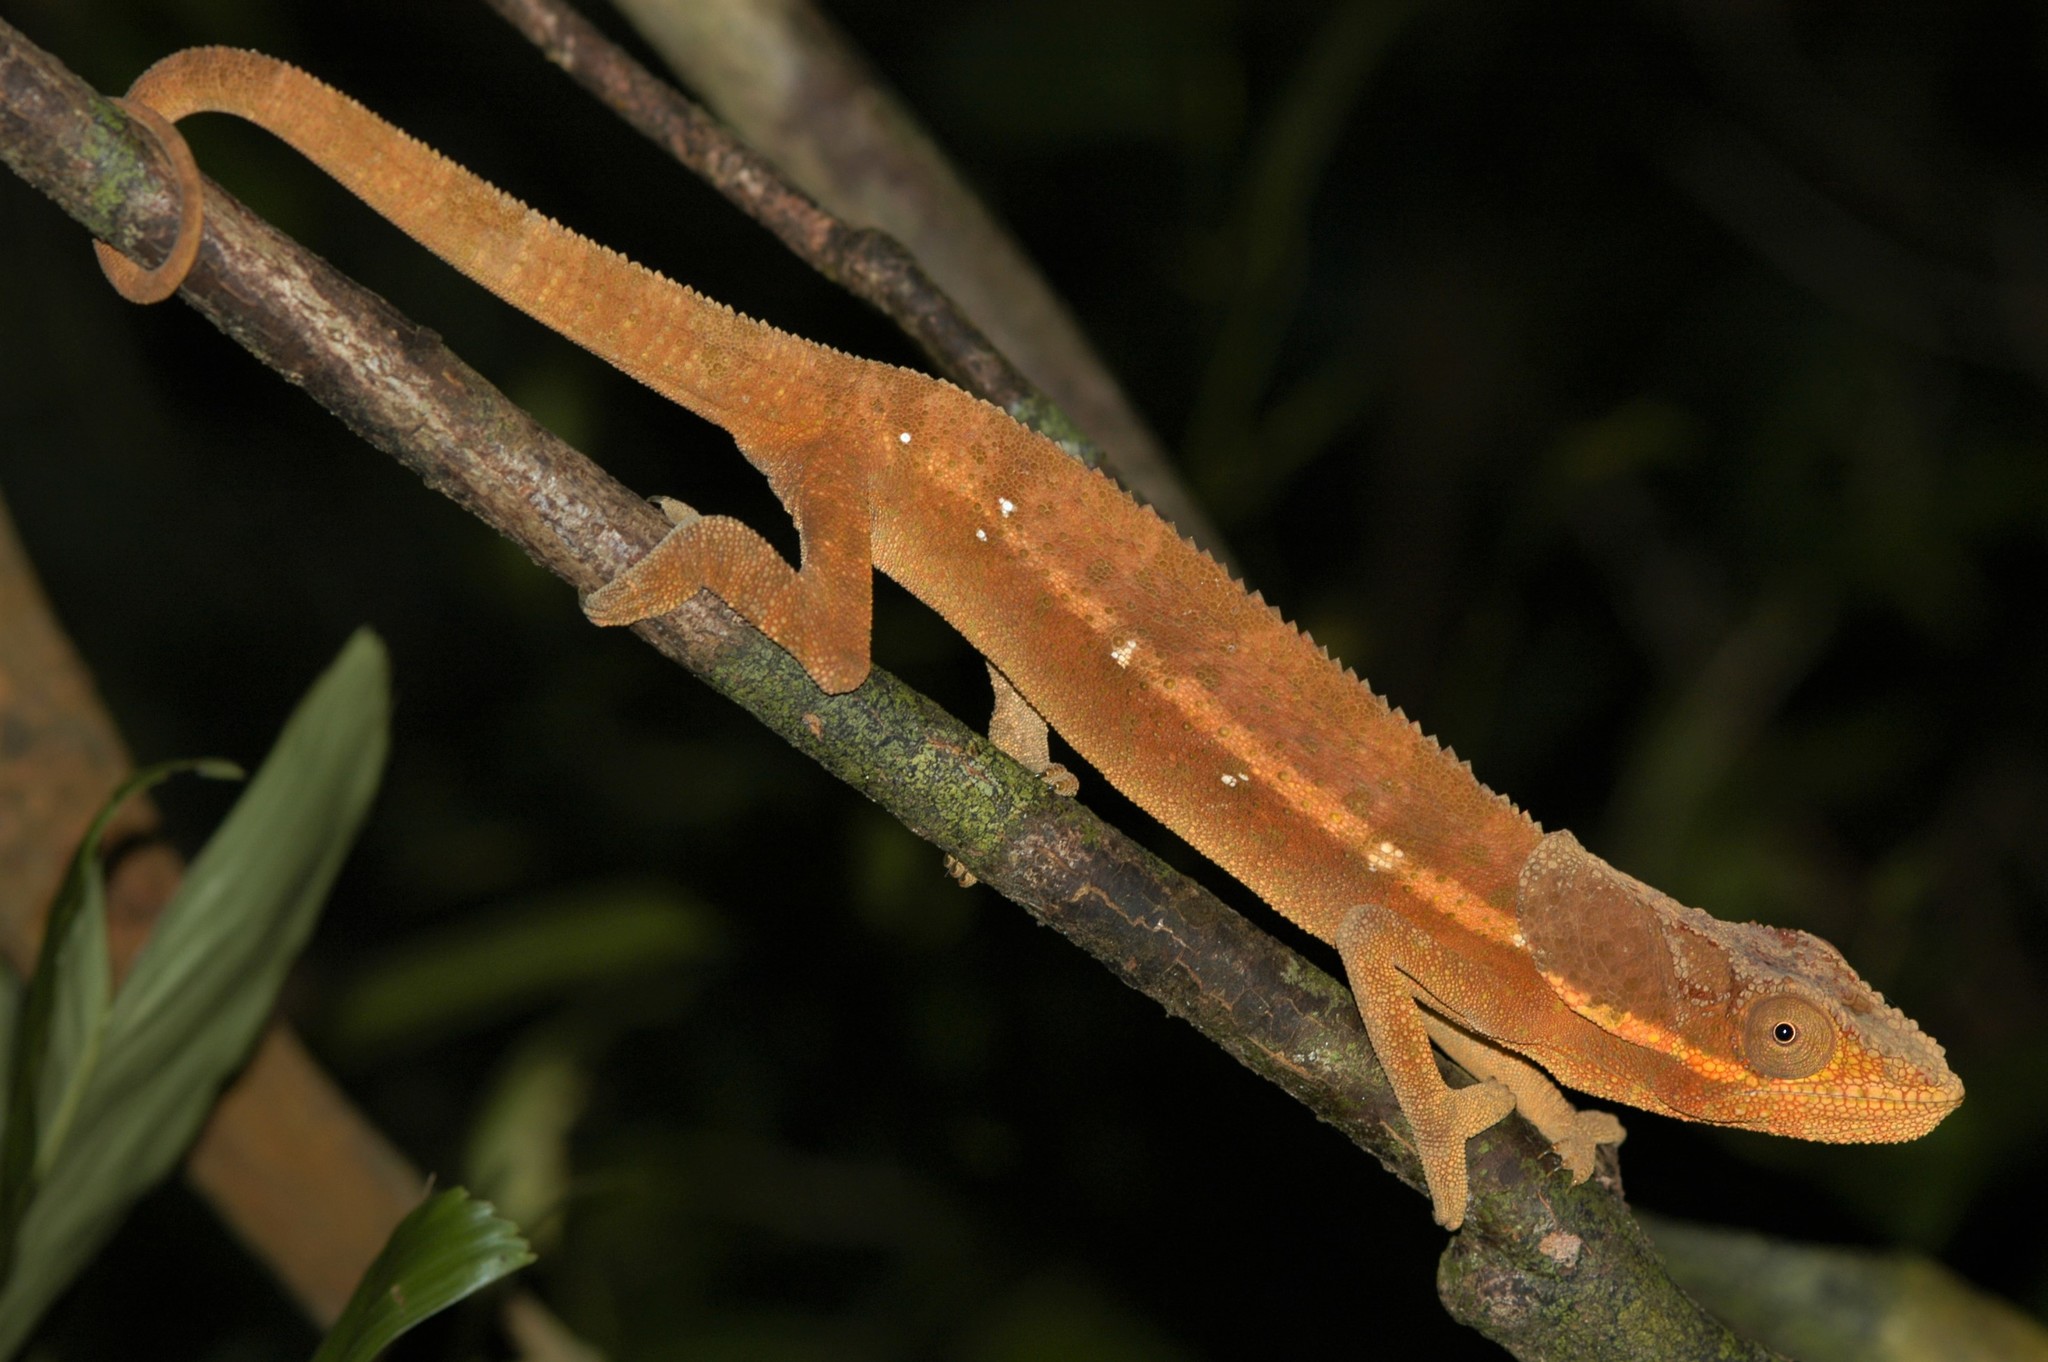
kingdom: Animalia
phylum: Chordata
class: Squamata
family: Chamaeleonidae
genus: Calumma
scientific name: Calumma cucullatum
